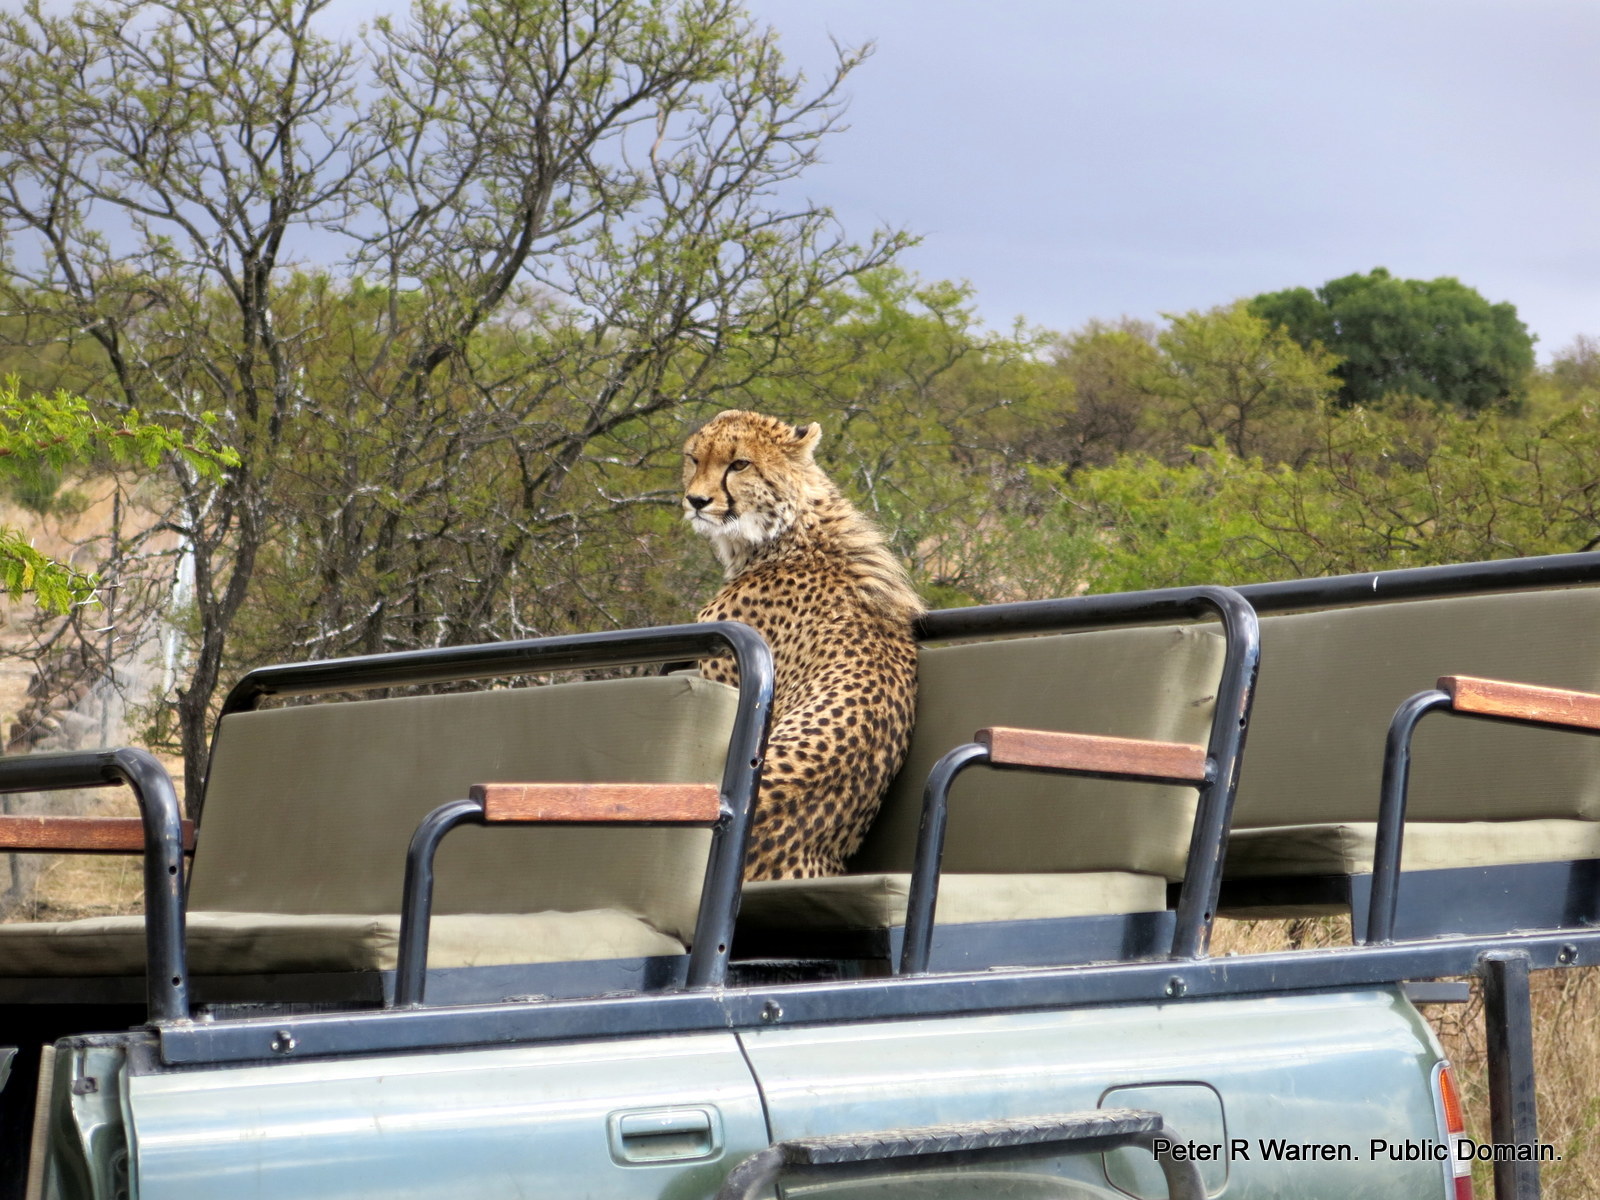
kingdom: Animalia
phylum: Chordata
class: Mammalia
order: Carnivora
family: Felidae
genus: Acinonyx
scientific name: Acinonyx jubatus
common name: Cheetah
